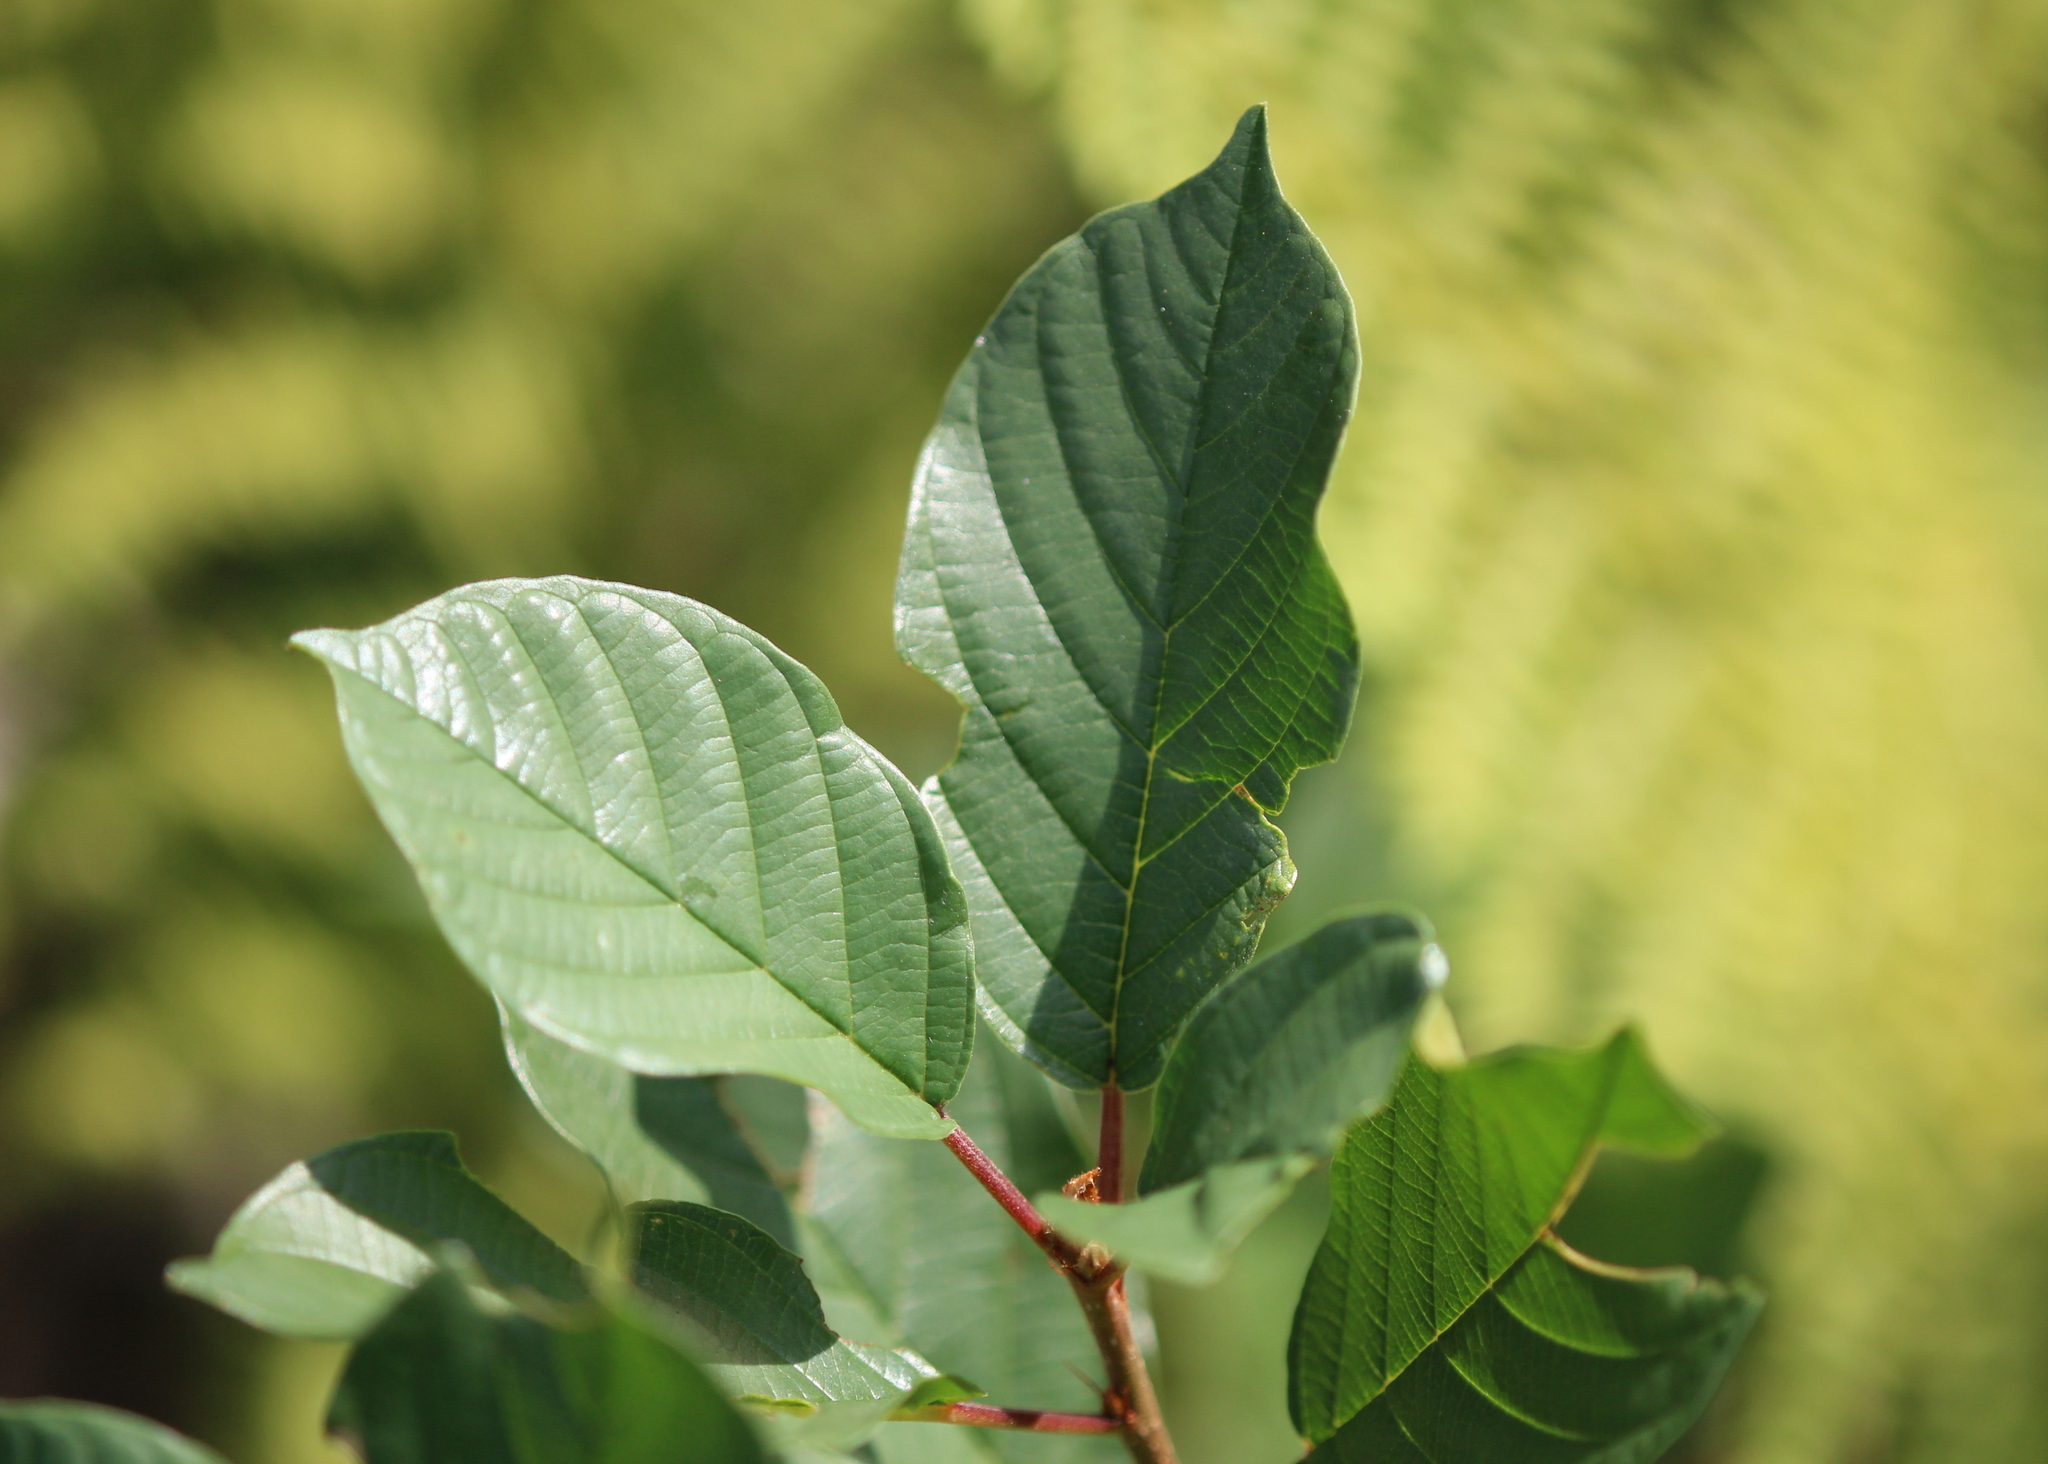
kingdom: Plantae
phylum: Tracheophyta
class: Magnoliopsida
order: Rosales
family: Rhamnaceae
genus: Frangula
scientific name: Frangula alnus
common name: Alder buckthorn
